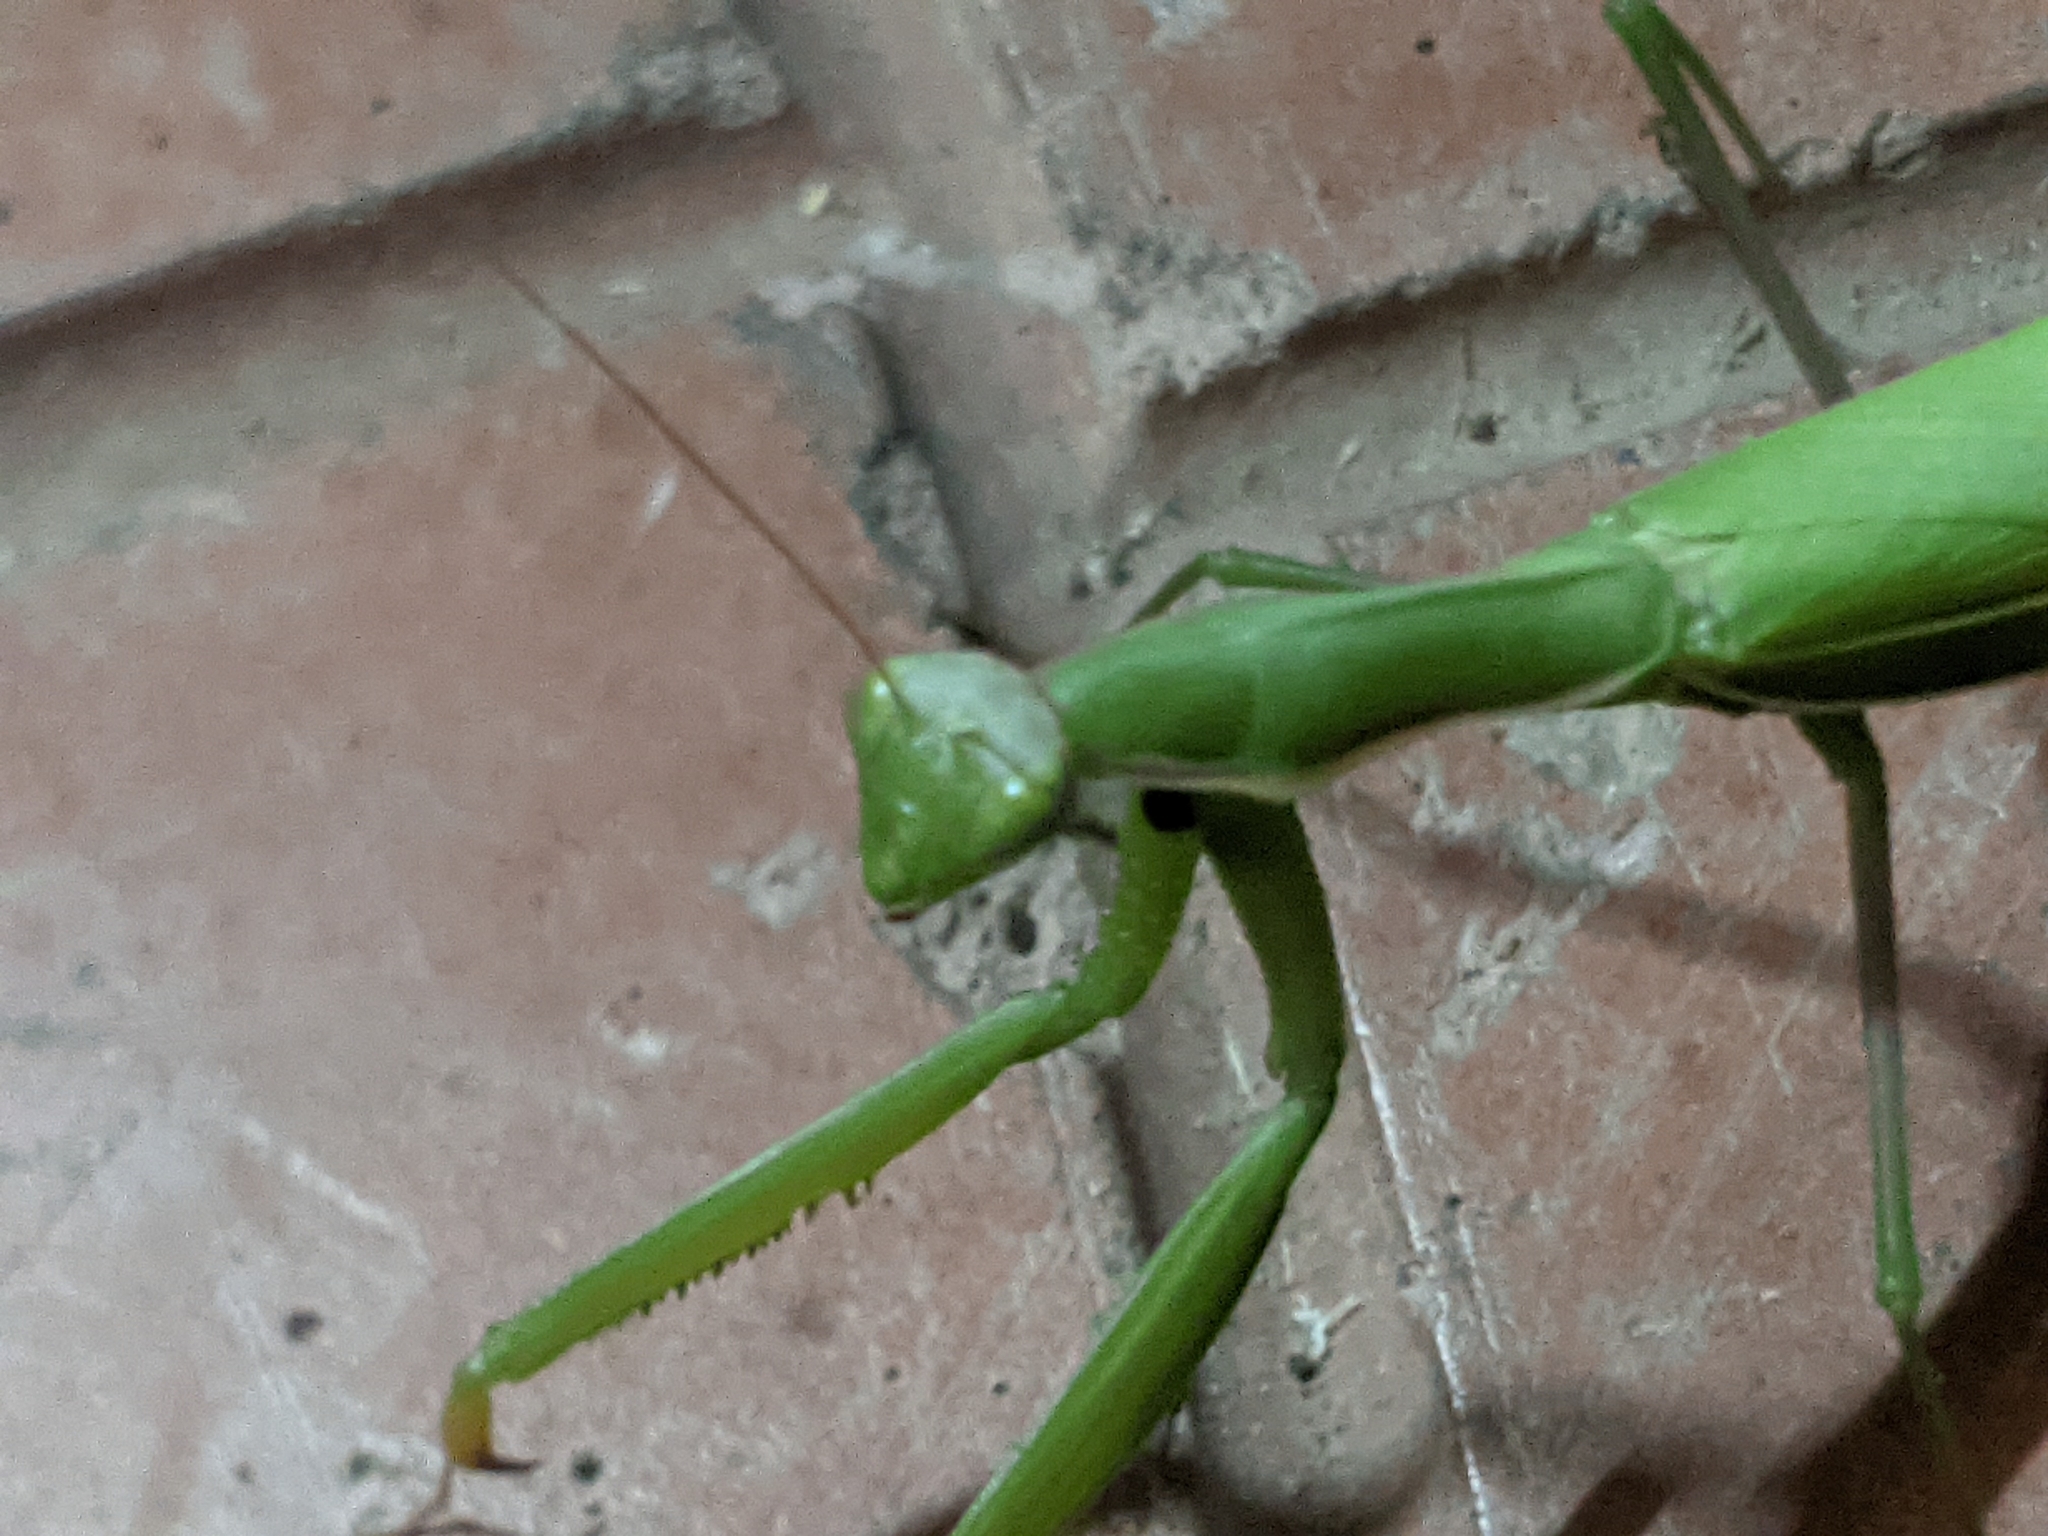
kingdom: Animalia
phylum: Arthropoda
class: Insecta
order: Mantodea
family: Mantidae
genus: Mantis
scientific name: Mantis religiosa
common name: Praying mantis
